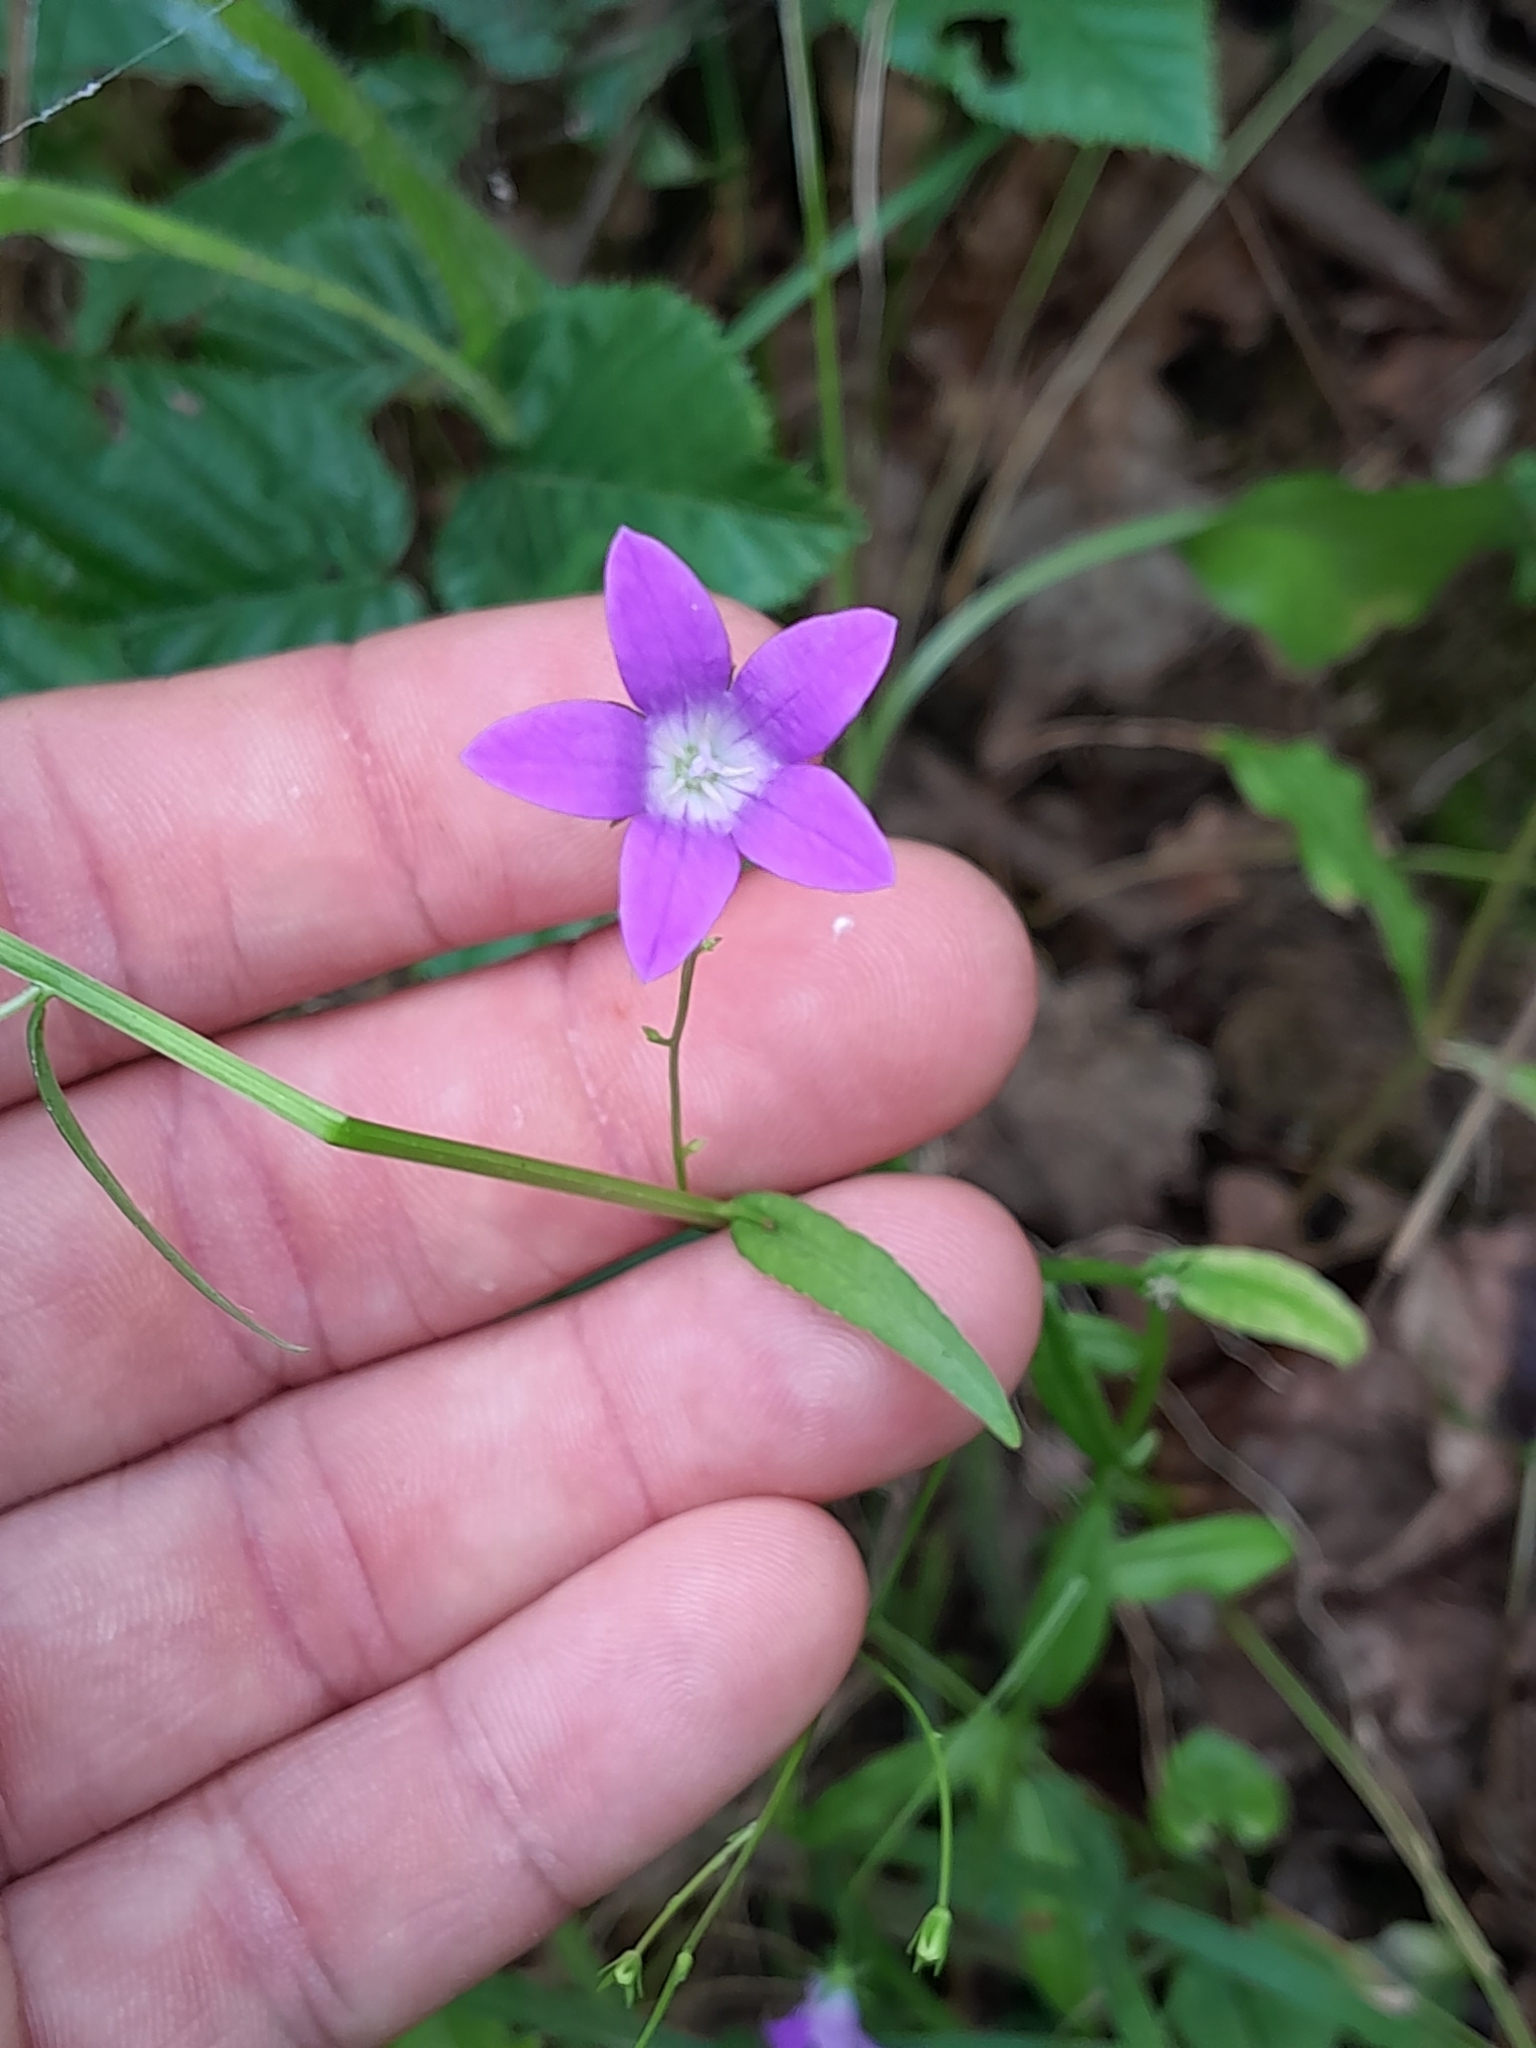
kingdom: Plantae
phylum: Tracheophyta
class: Magnoliopsida
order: Asterales
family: Campanulaceae
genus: Campanula
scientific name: Campanula patula
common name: Spreading bellflower
